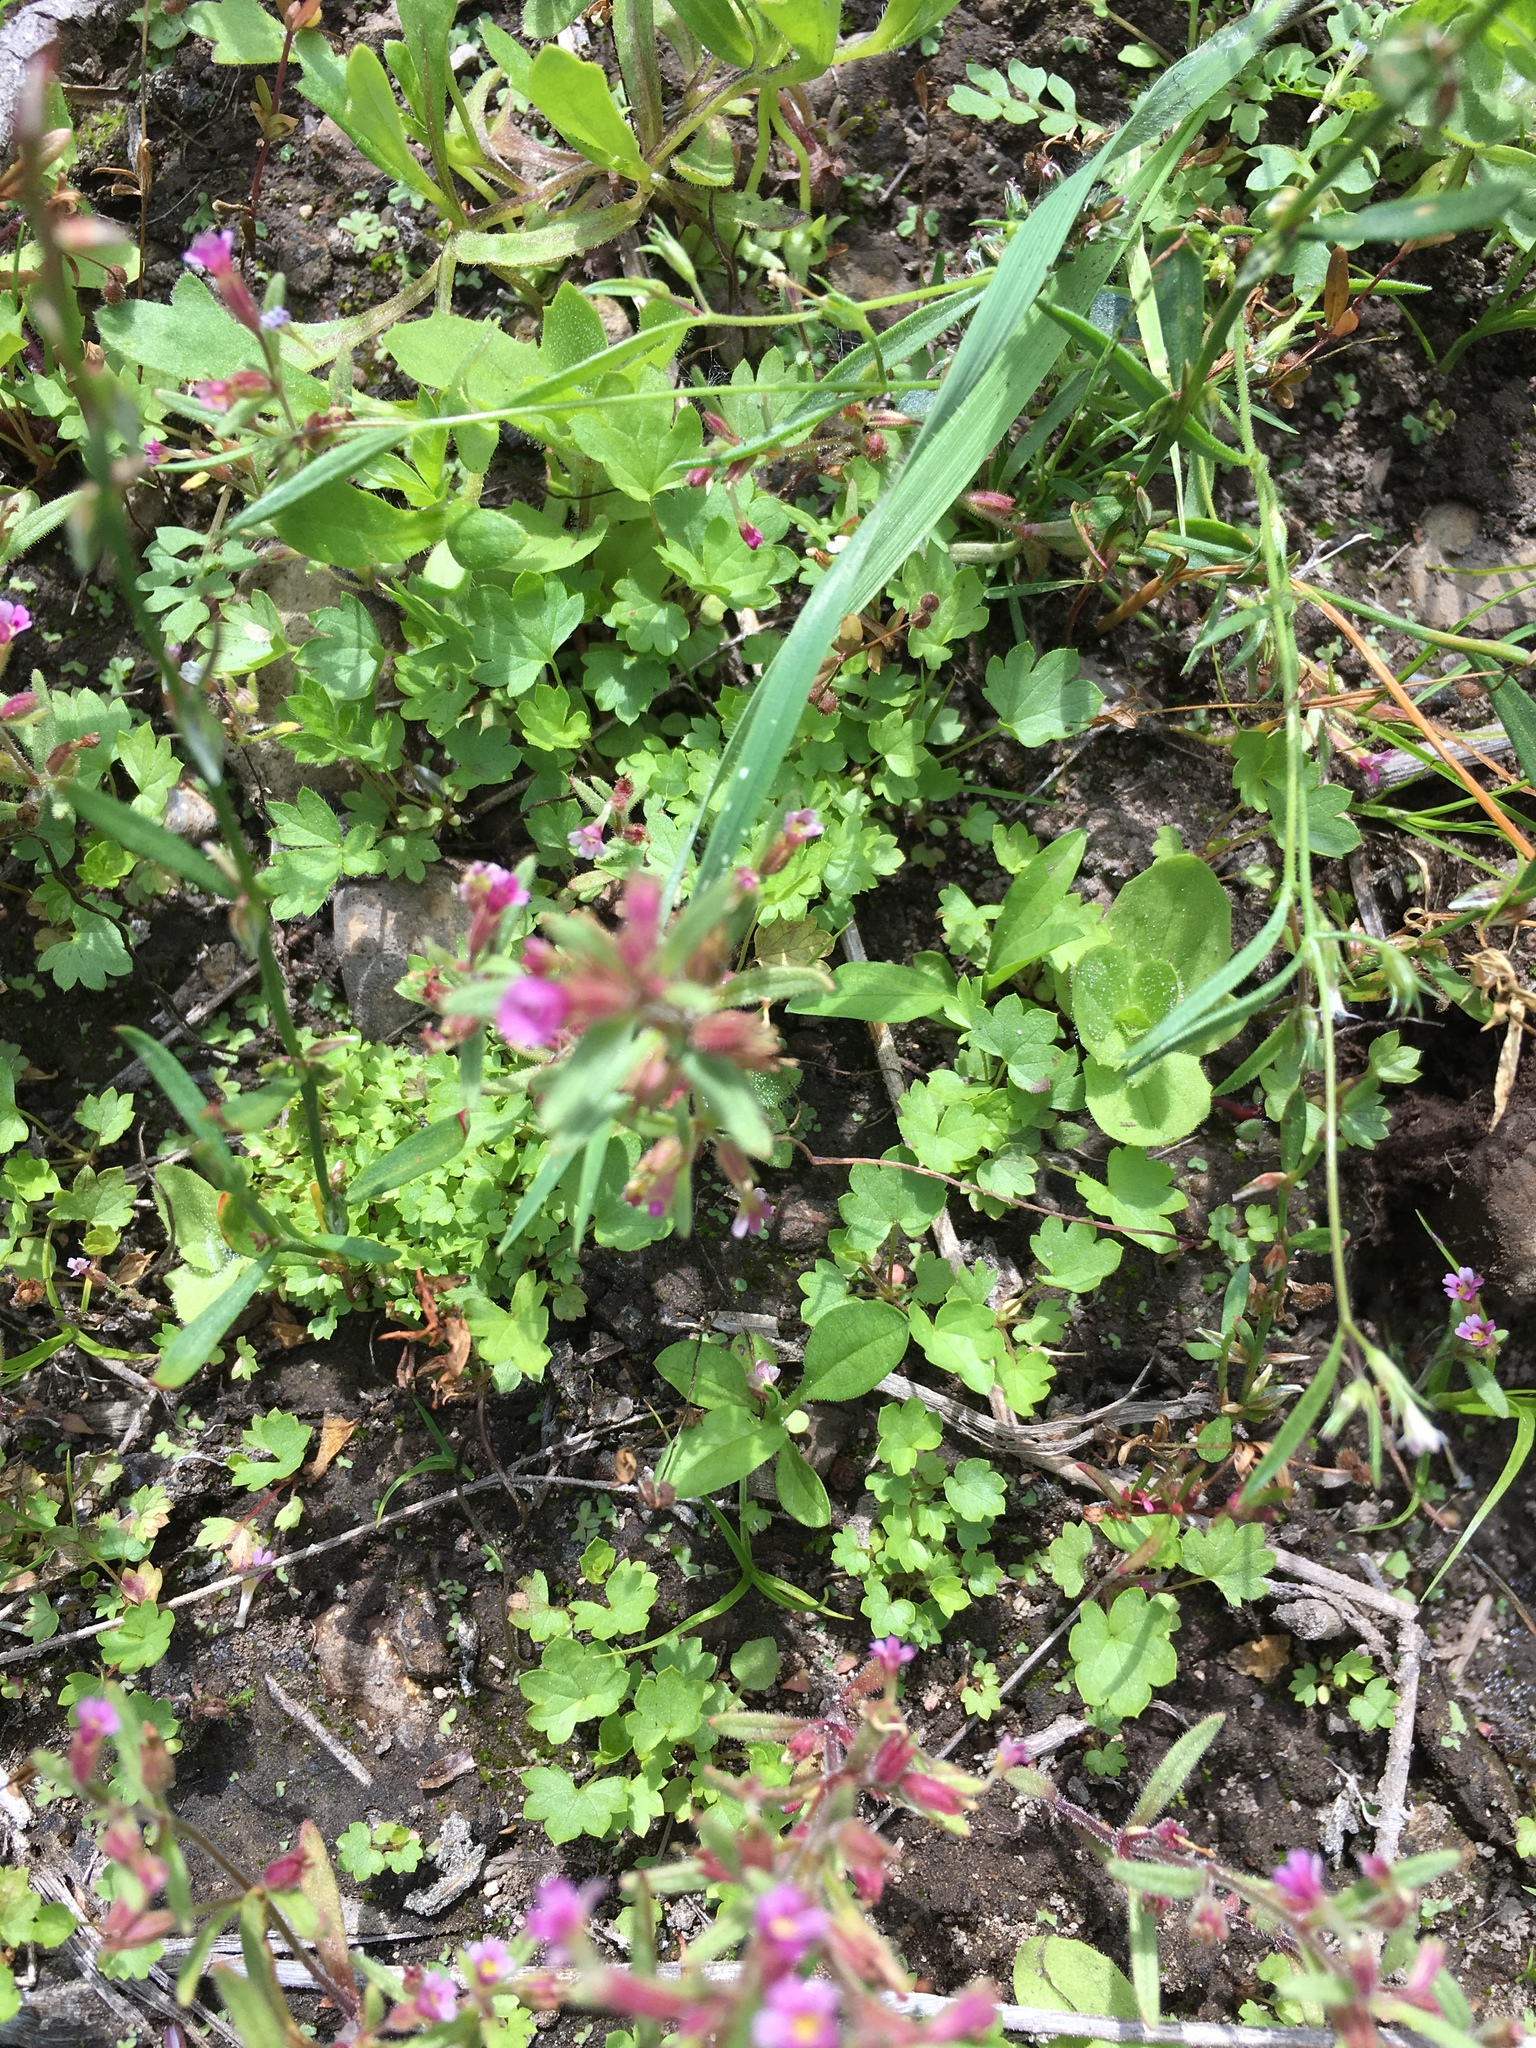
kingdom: Plantae
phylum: Tracheophyta
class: Magnoliopsida
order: Lamiales
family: Phrymaceae
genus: Erythranthe
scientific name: Erythranthe breweri
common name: Brewer's monkeyflower
